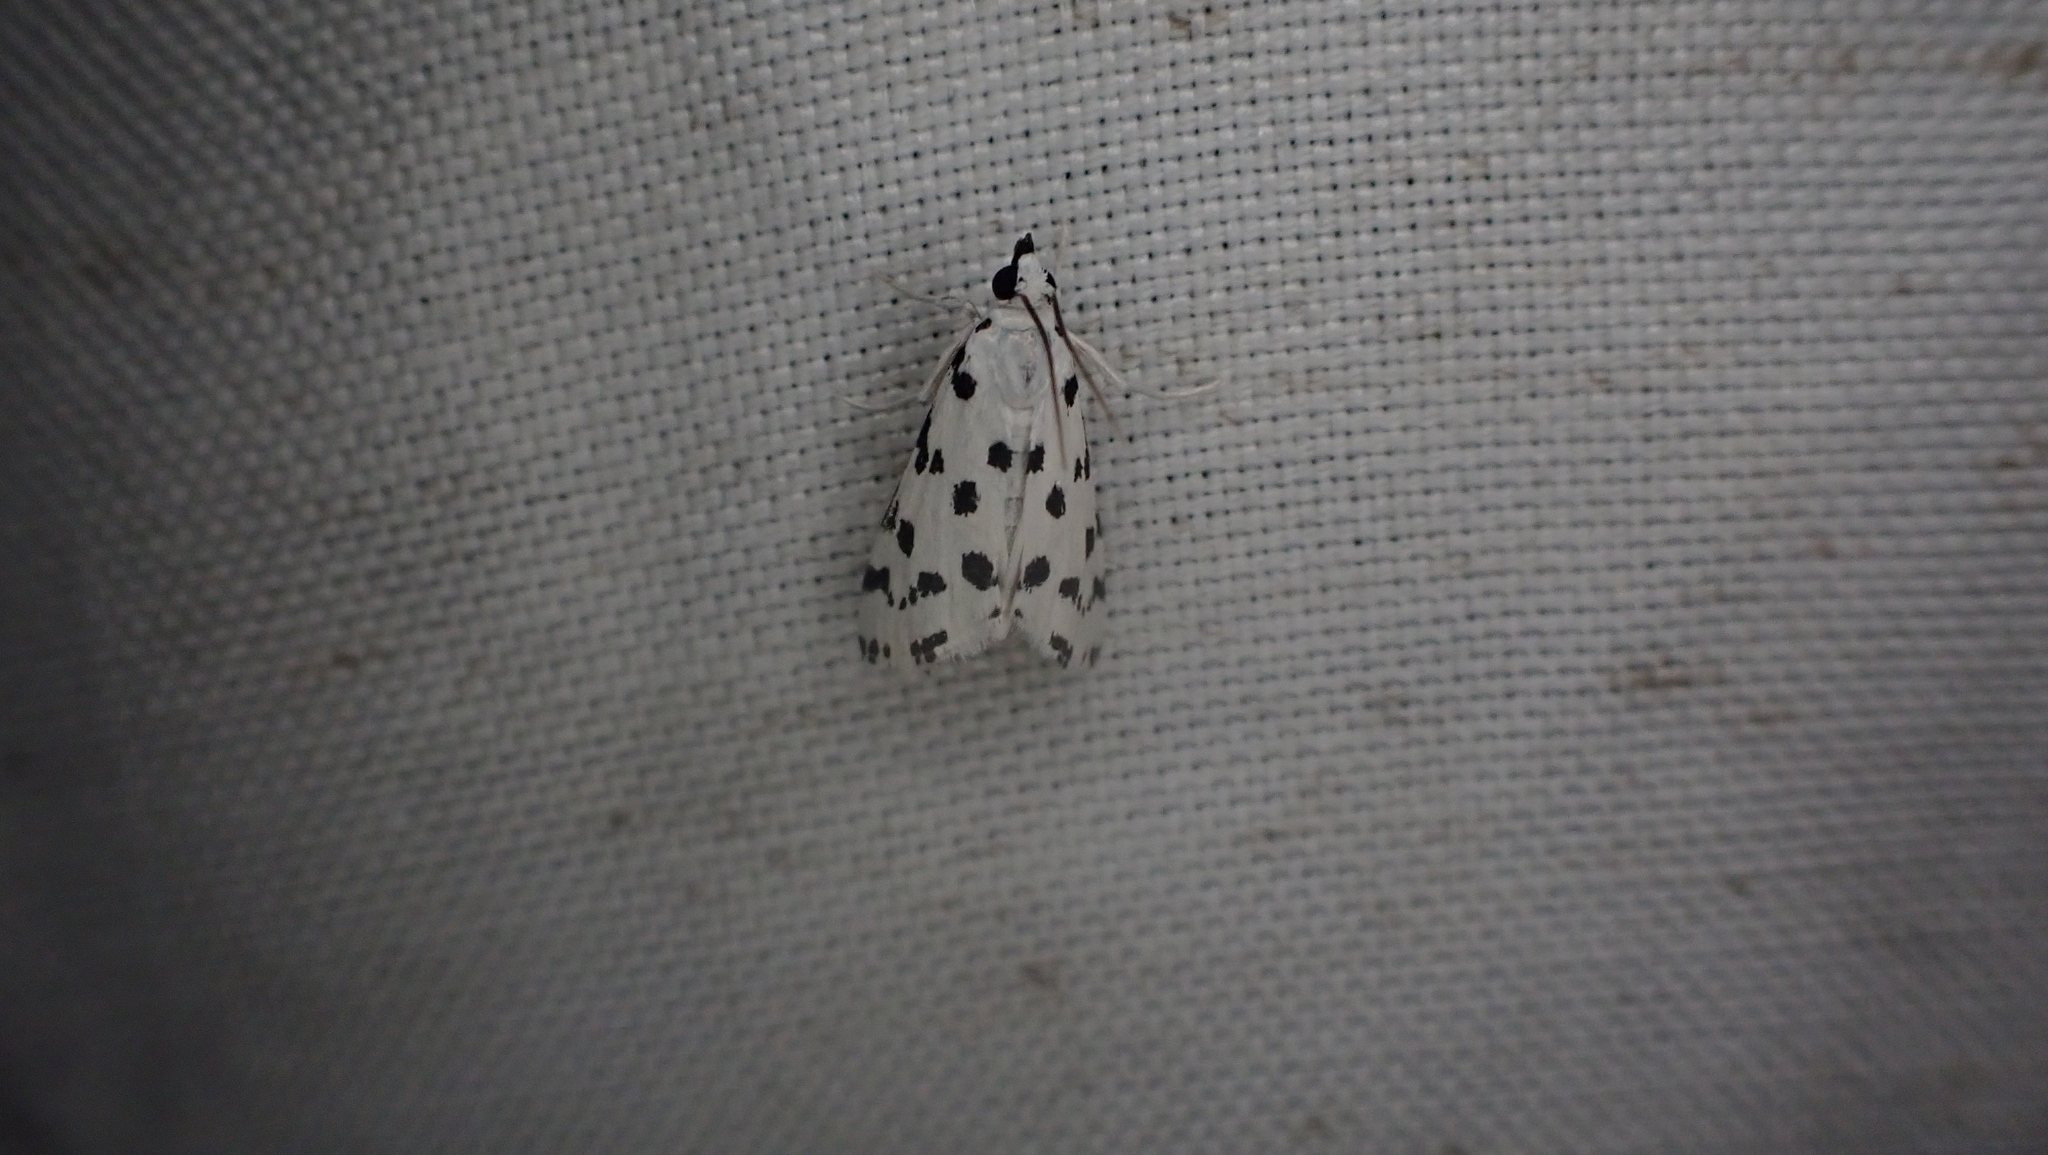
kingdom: Animalia
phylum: Arthropoda
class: Insecta
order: Lepidoptera
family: Crambidae
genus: Eustixia
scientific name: Eustixia pupula
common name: American cabbage pearl
